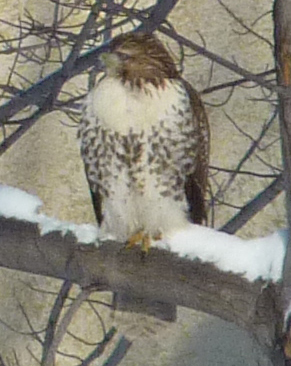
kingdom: Animalia
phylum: Chordata
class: Aves
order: Accipitriformes
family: Accipitridae
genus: Buteo
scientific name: Buteo jamaicensis
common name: Red-tailed hawk
